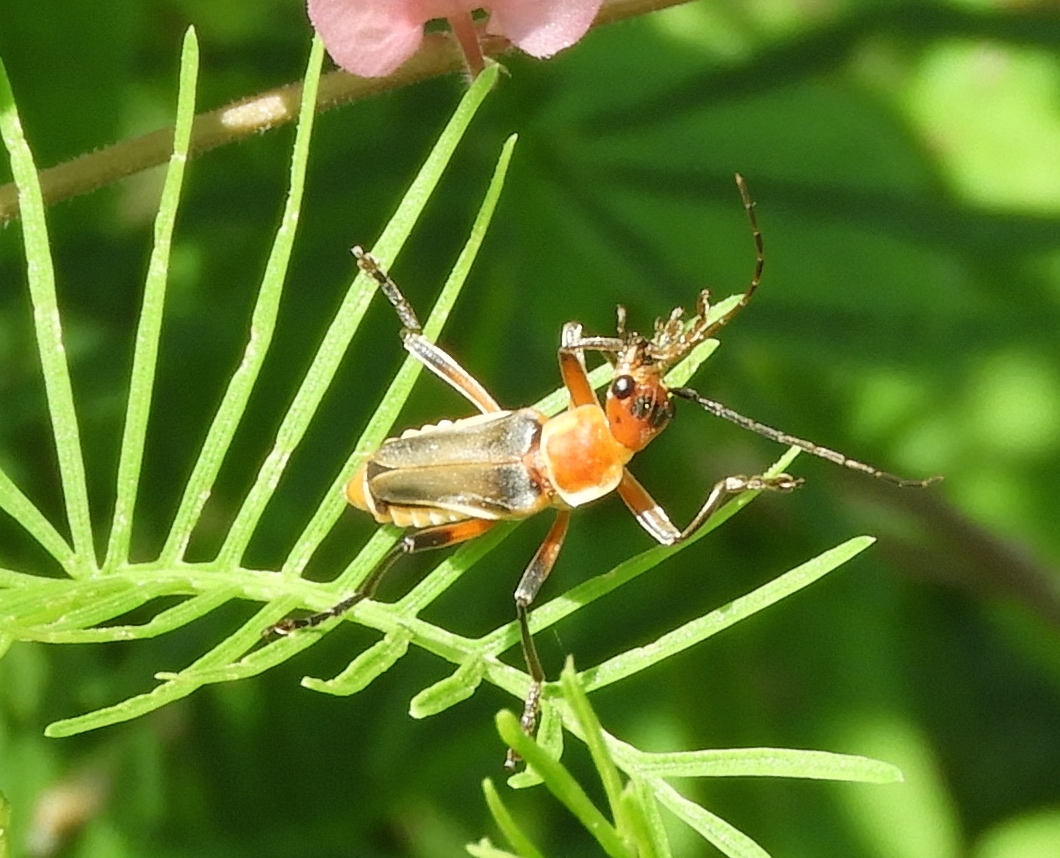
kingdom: Animalia
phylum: Arthropoda
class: Insecta
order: Coleoptera
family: Cantharidae
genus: Chauliognathus
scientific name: Chauliognathus
